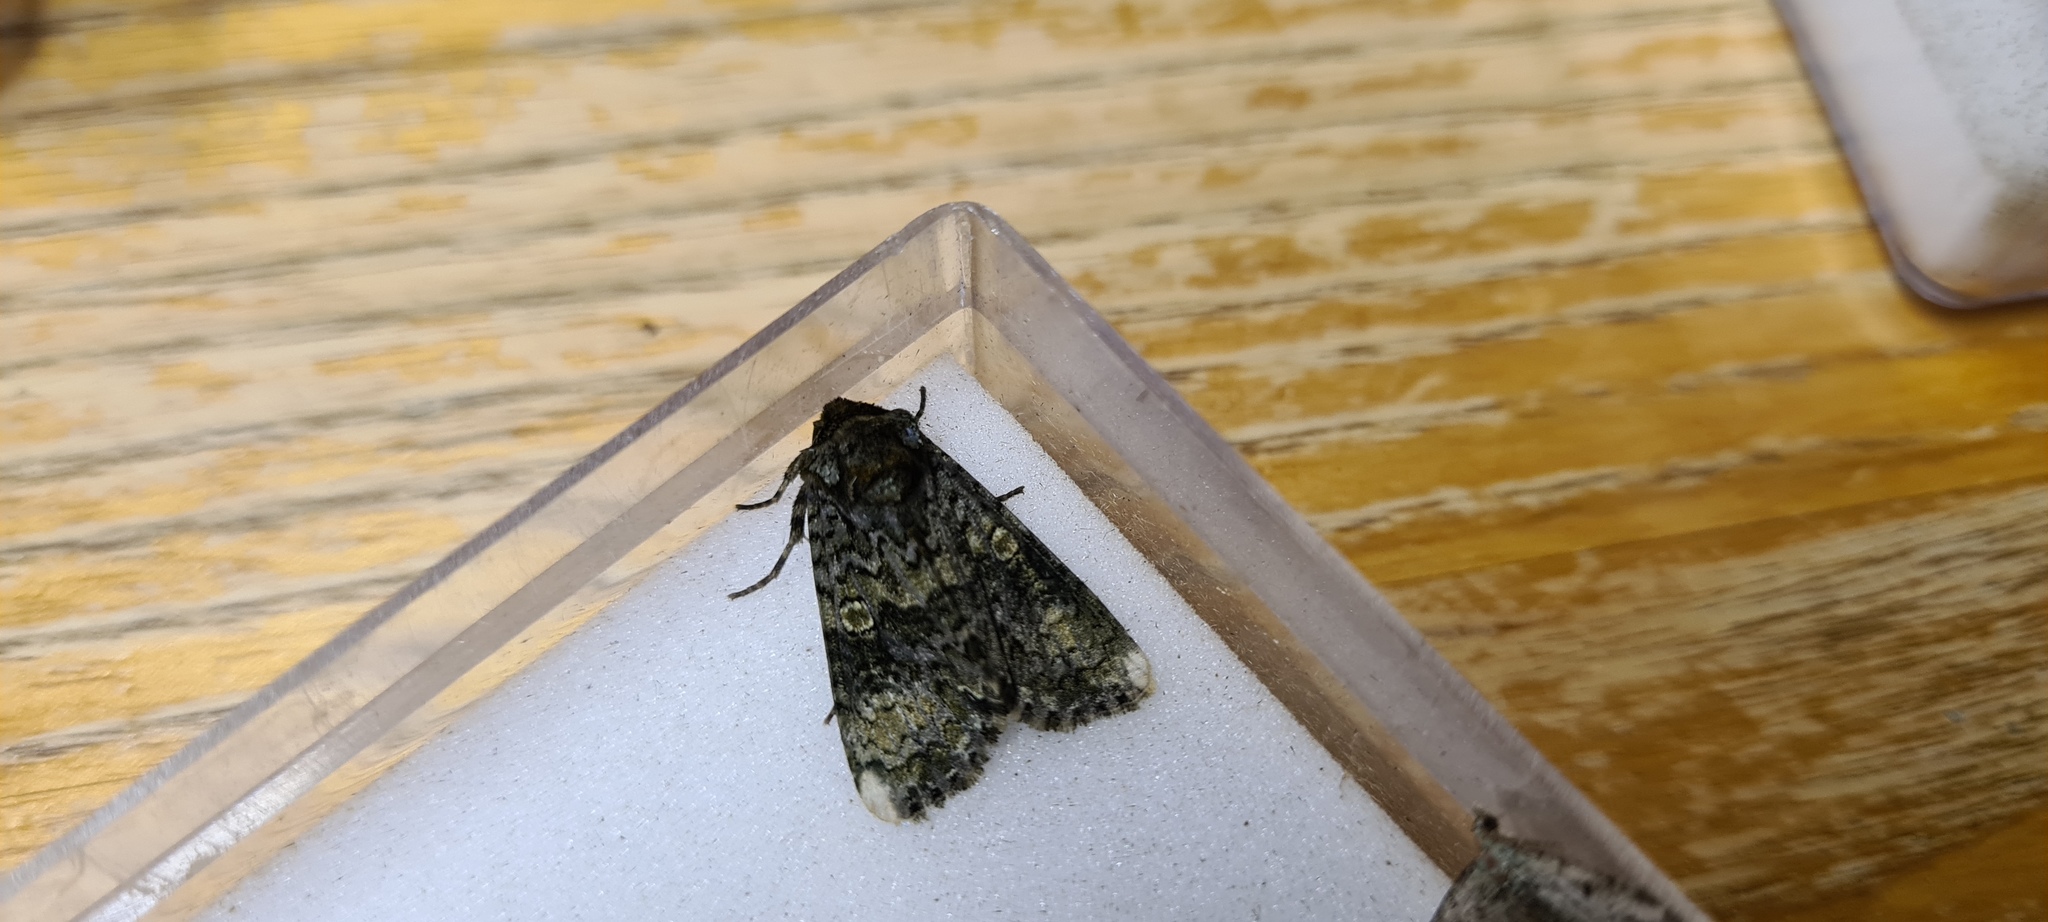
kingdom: Animalia
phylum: Arthropoda
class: Insecta
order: Lepidoptera
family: Noctuidae
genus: Craniophora
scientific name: Craniophora ligustri
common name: Coronet
